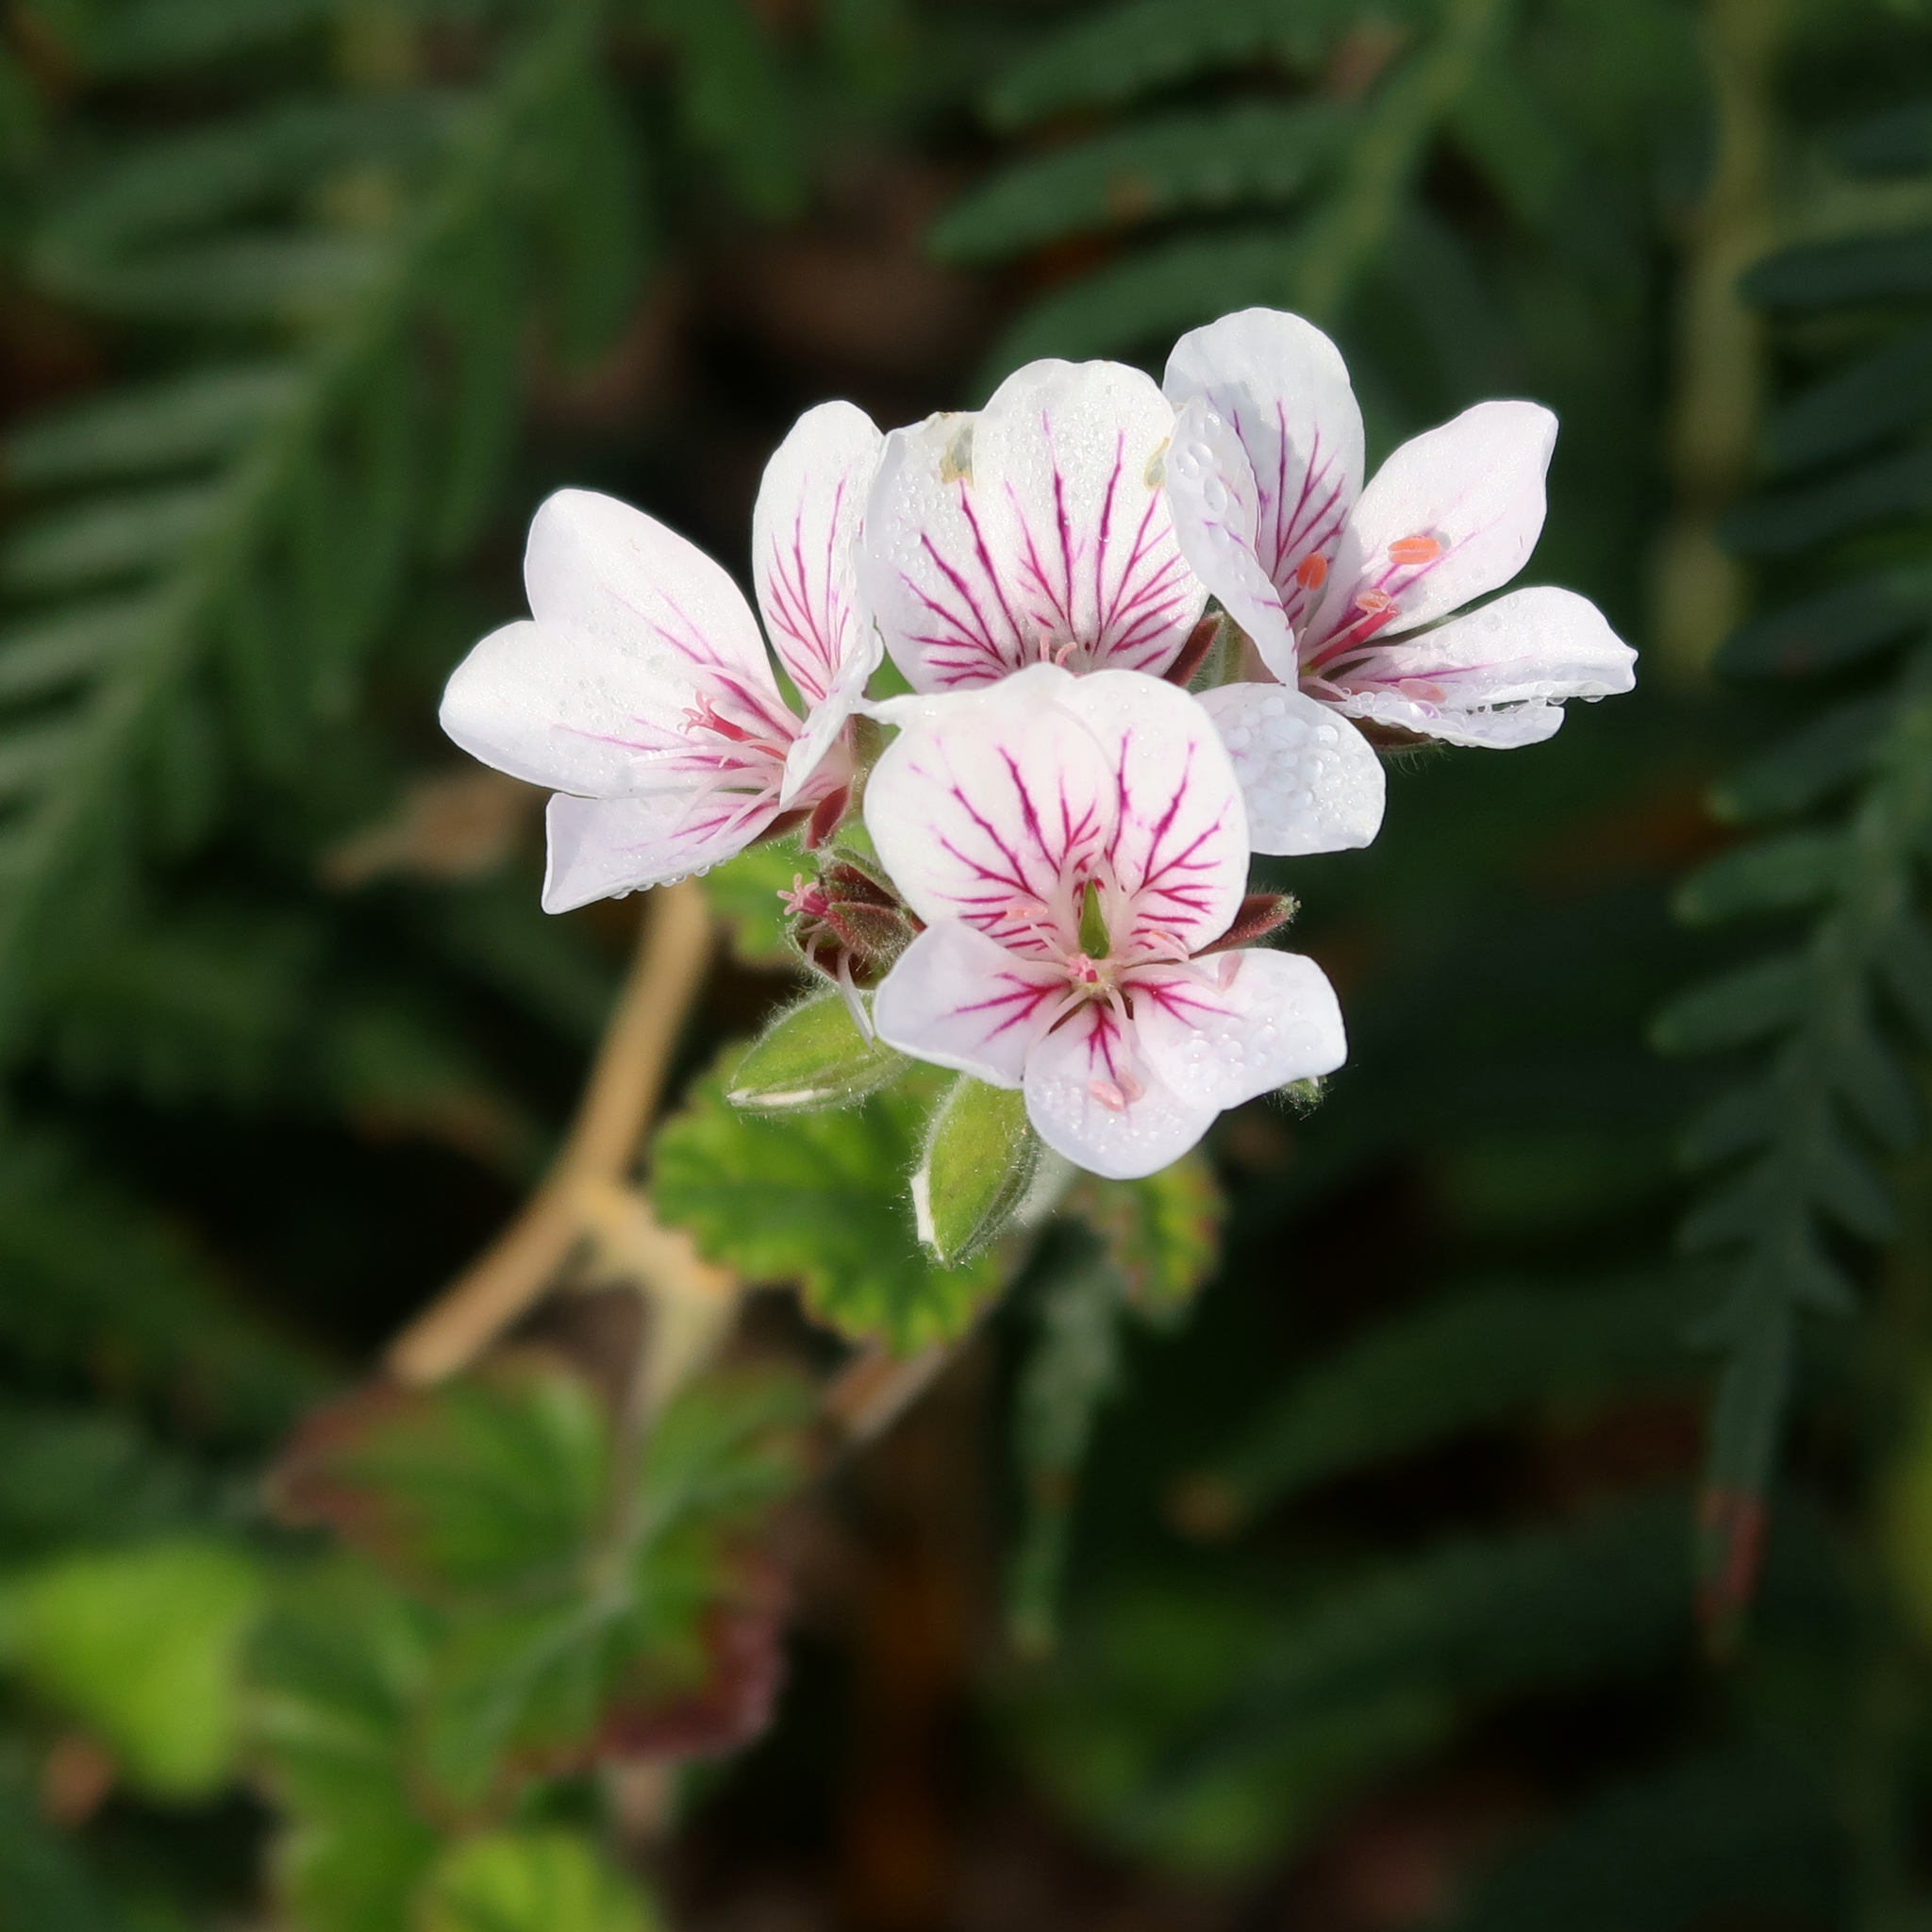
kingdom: Plantae
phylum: Tracheophyta
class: Magnoliopsida
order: Geraniales
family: Geraniaceae
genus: Pelargonium
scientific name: Pelargonium australe
